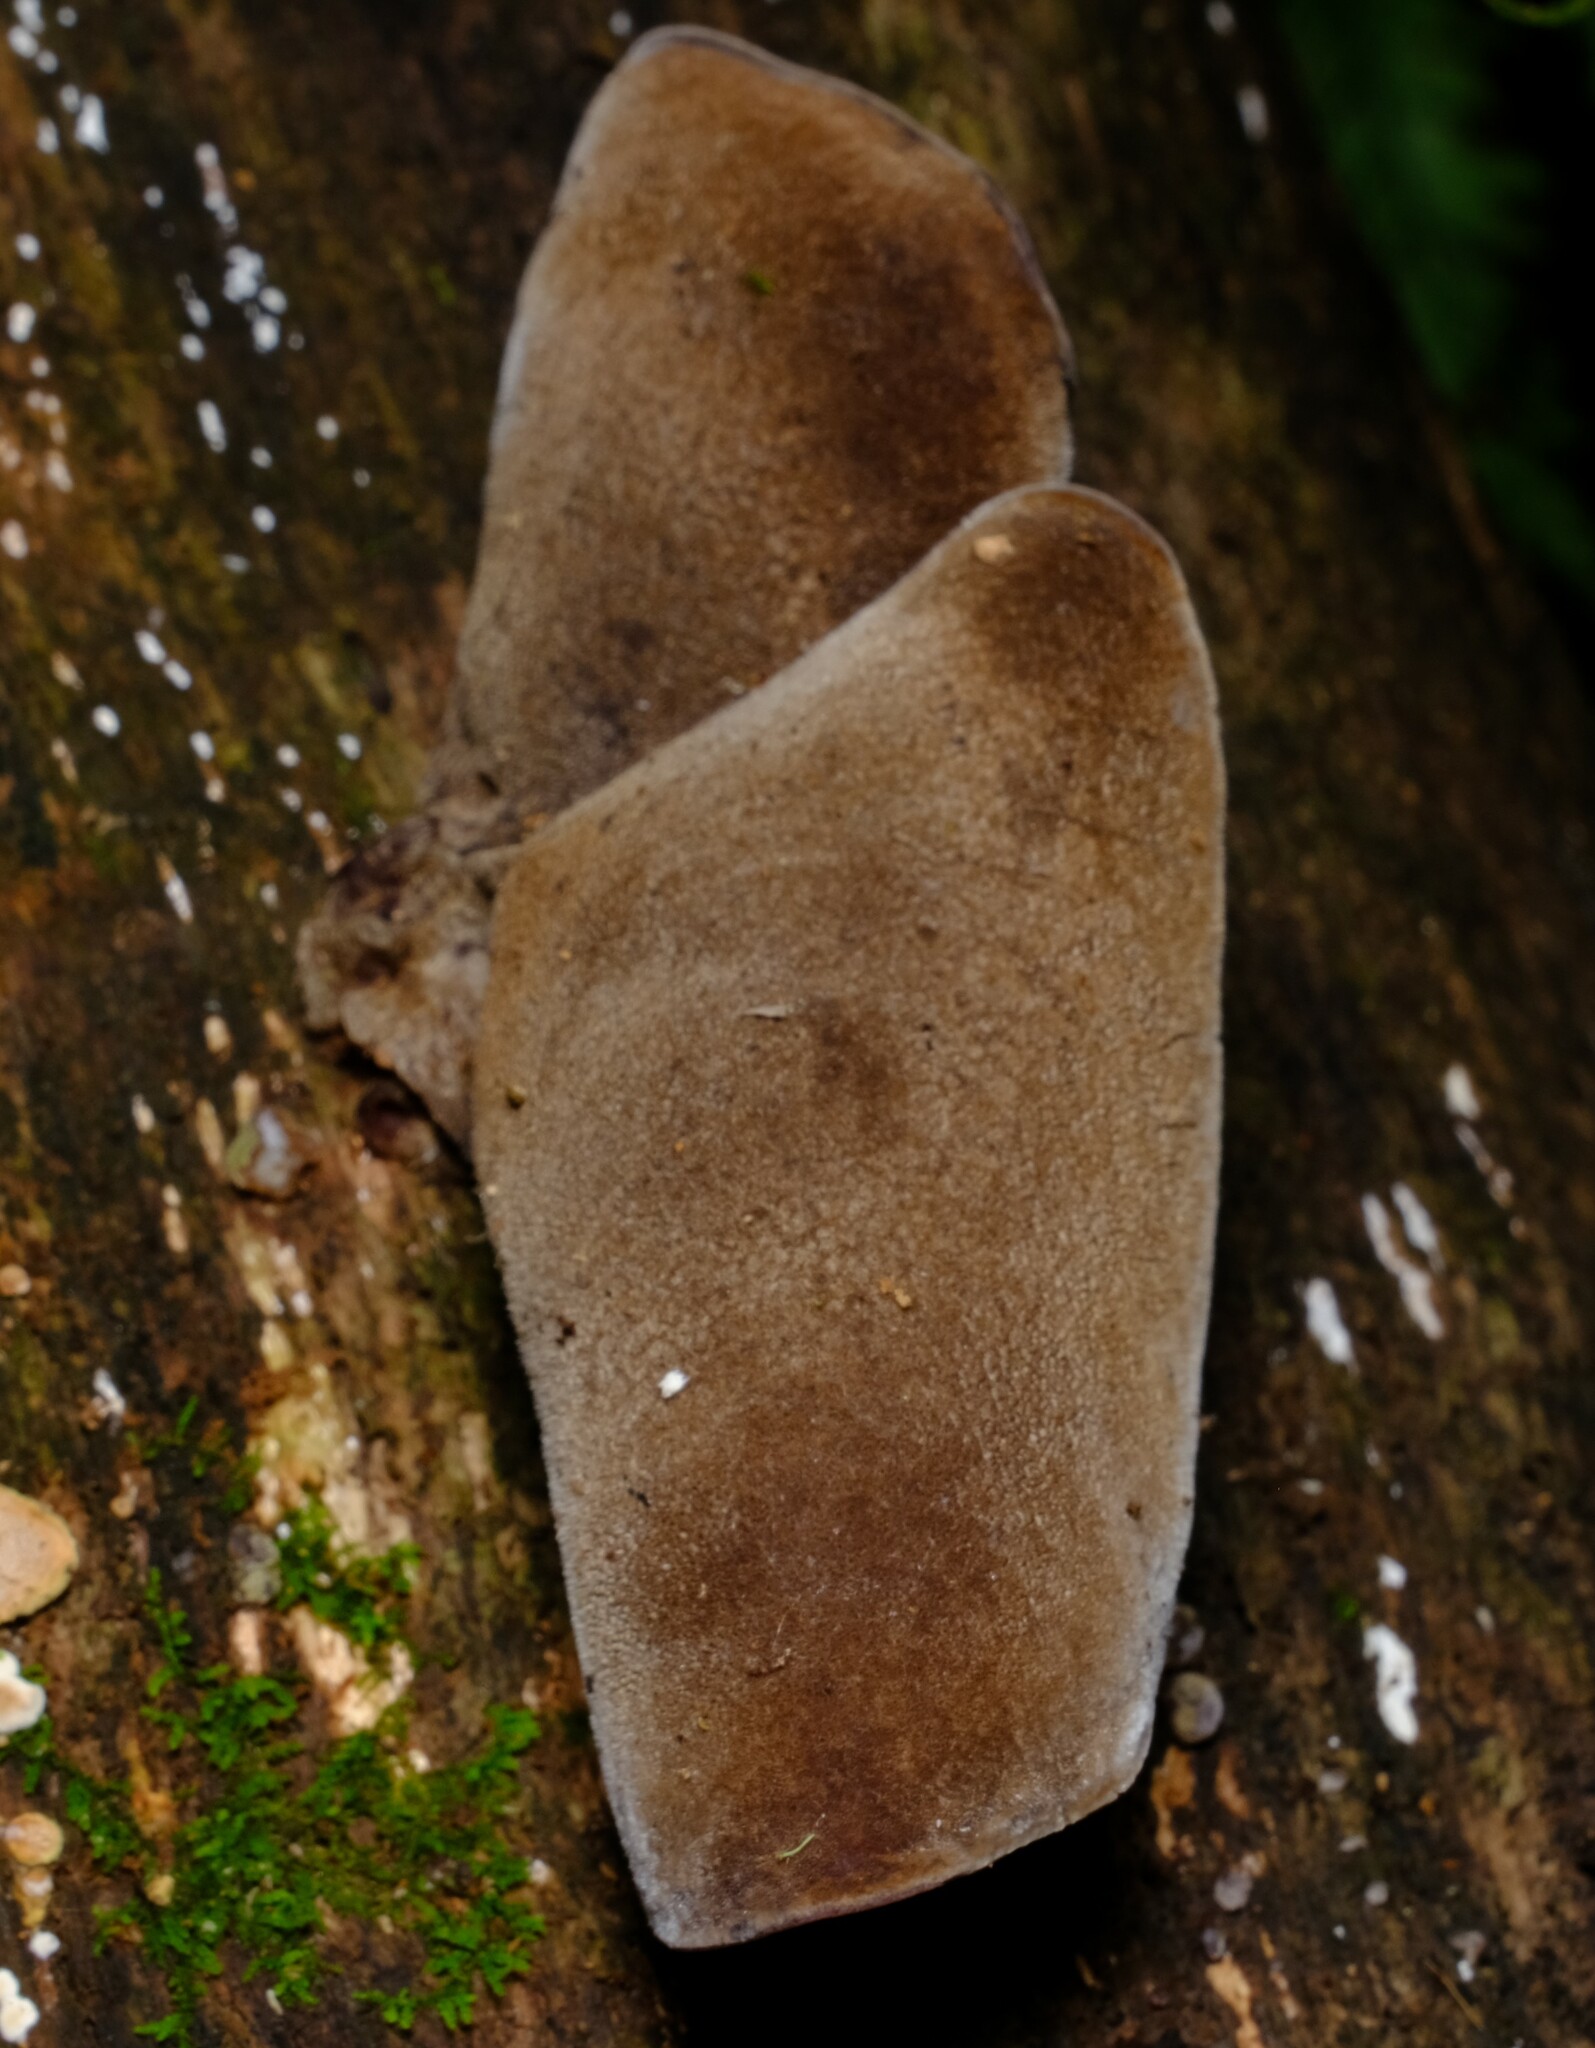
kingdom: Fungi
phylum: Basidiomycota
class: Agaricomycetes
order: Auriculariales
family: Auriculariaceae
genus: Auricularia
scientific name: Auricularia cornea
